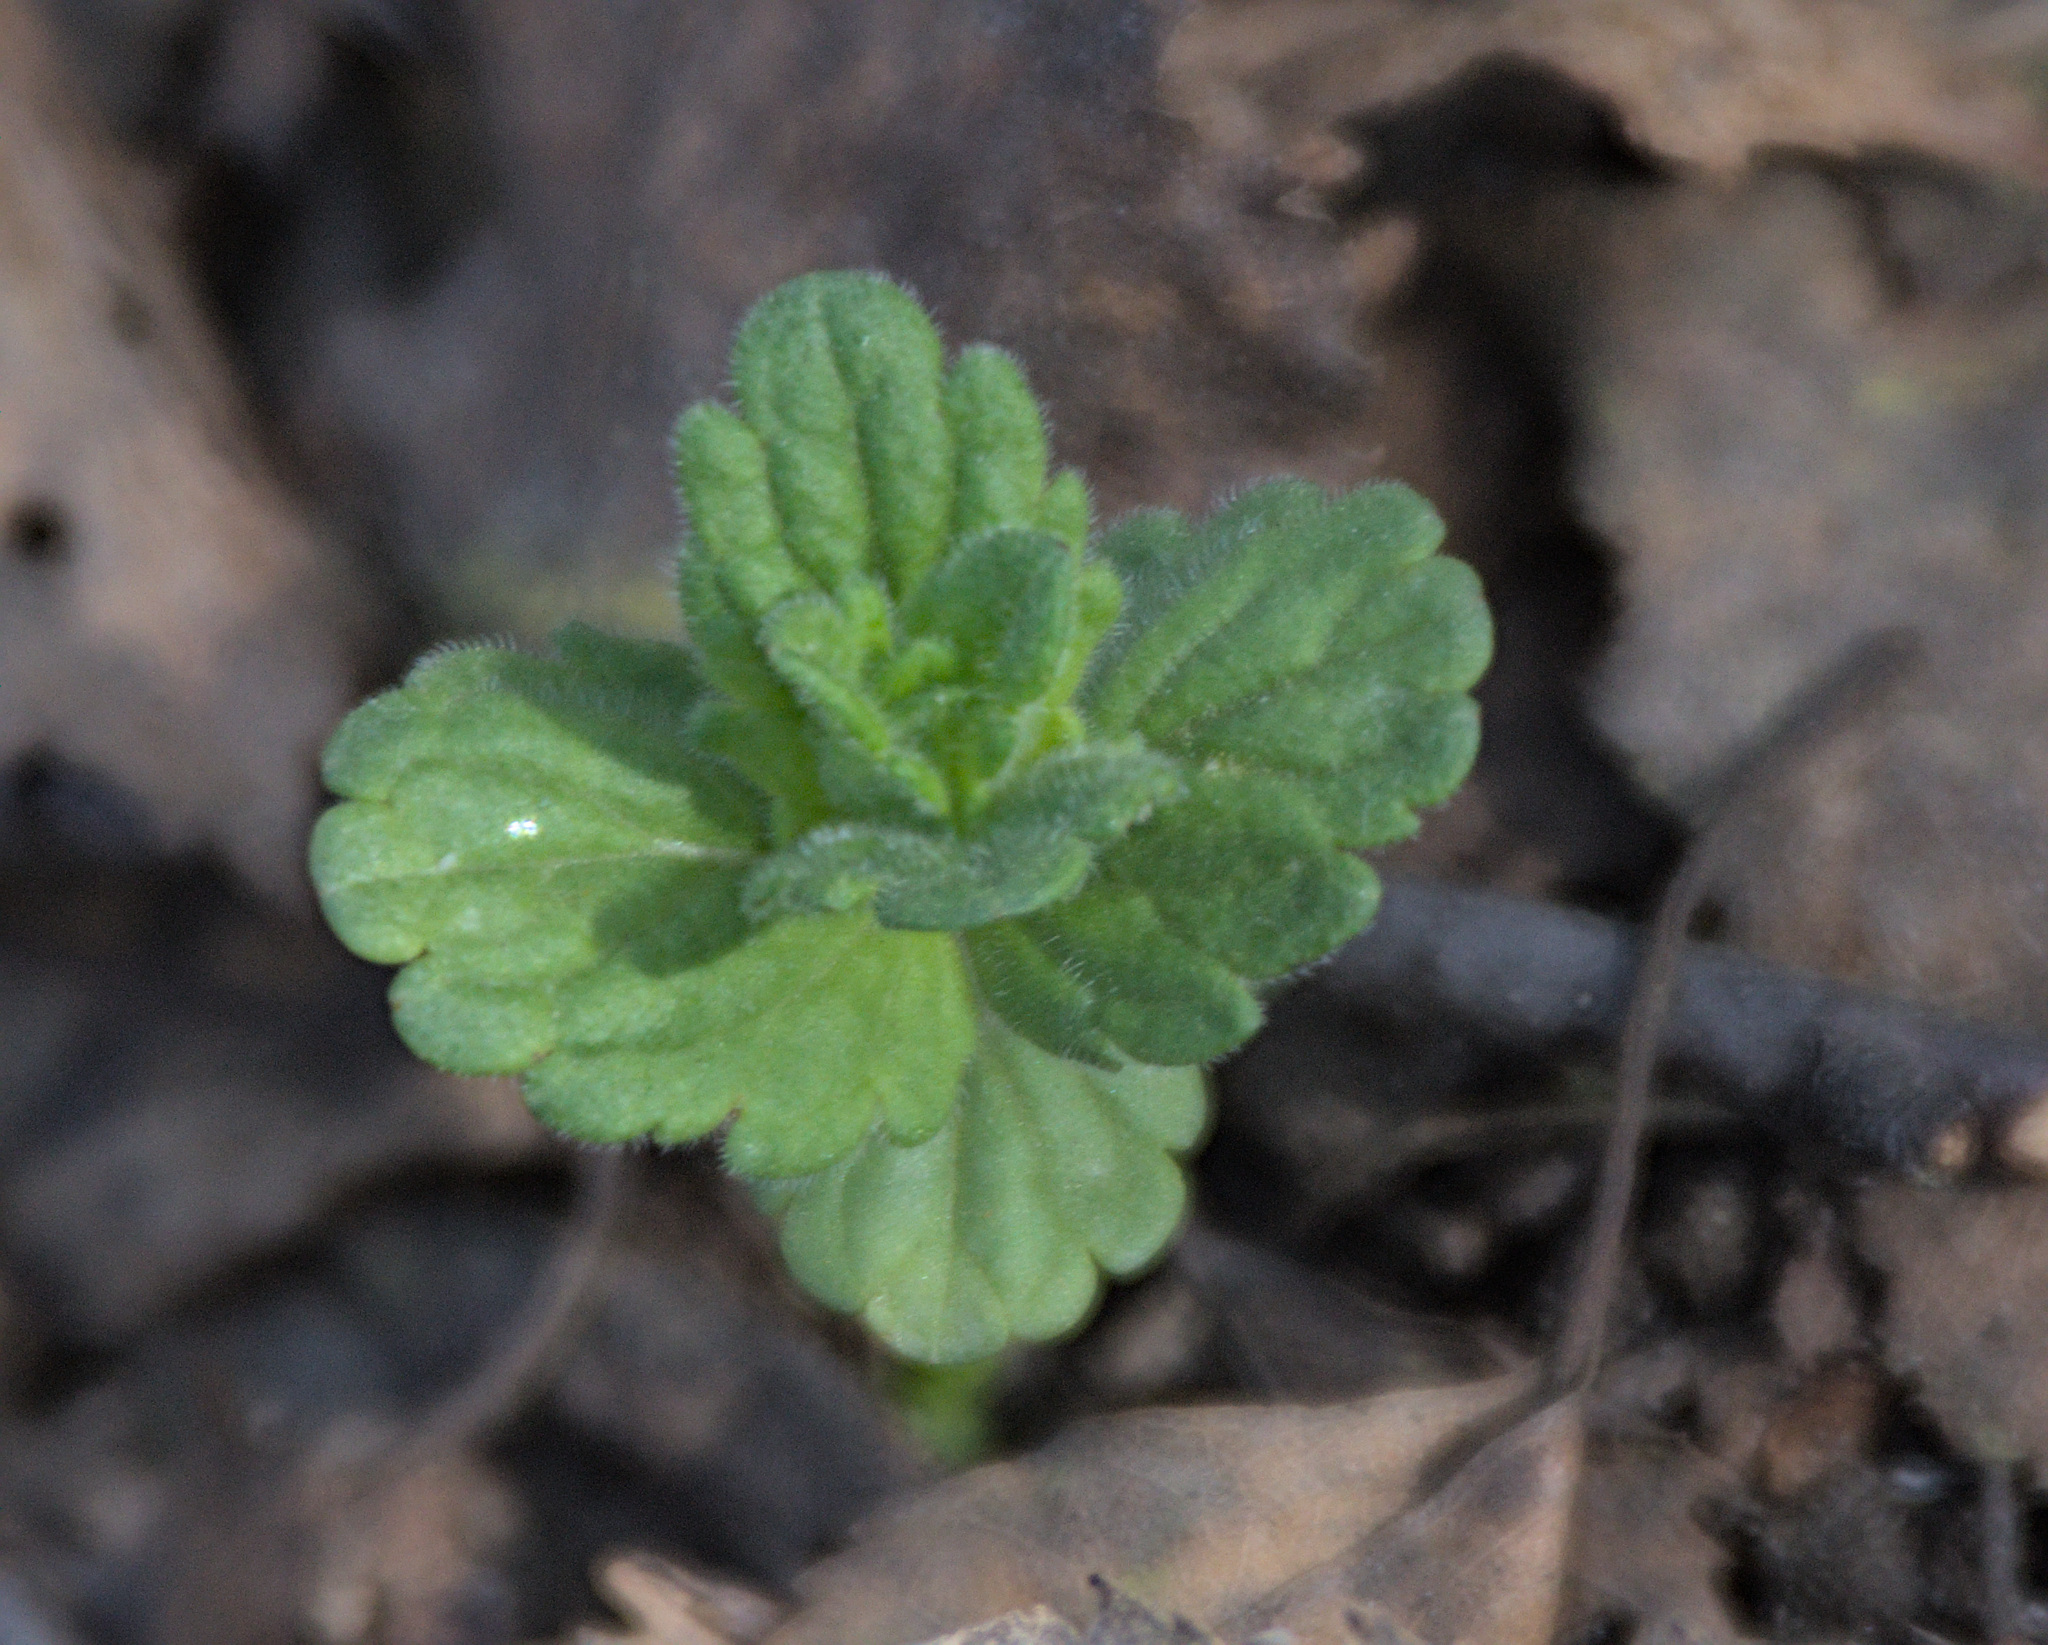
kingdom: Plantae
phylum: Tracheophyta
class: Magnoliopsida
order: Lamiales
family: Plantaginaceae
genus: Veronica
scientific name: Veronica chamaedrys
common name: Germander speedwell
